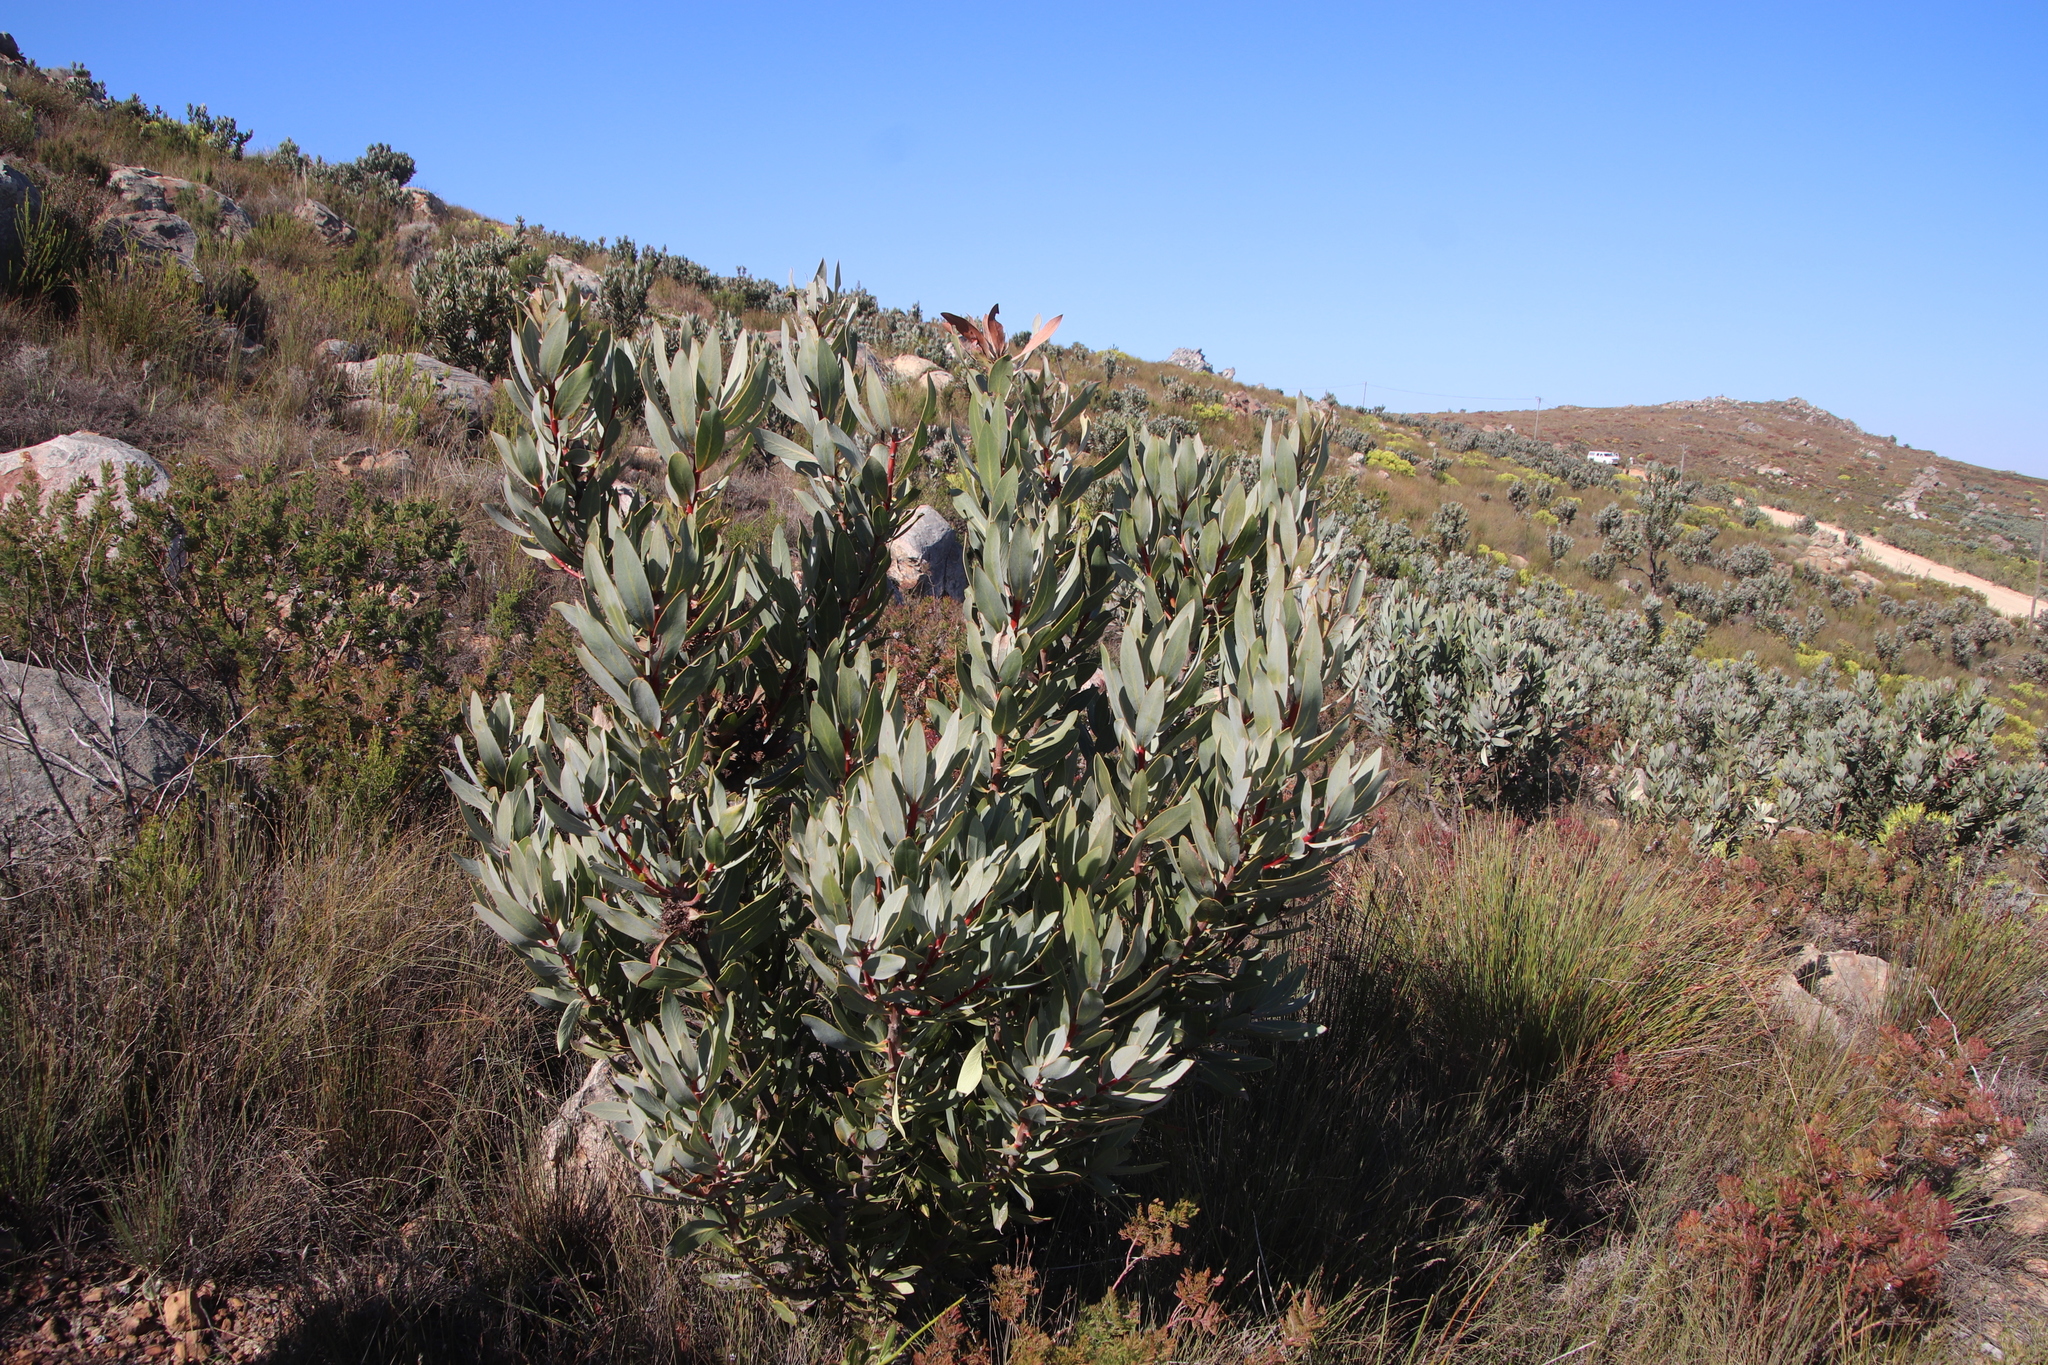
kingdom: Plantae
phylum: Tracheophyta
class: Magnoliopsida
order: Proteales
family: Proteaceae
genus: Protea
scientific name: Protea laurifolia
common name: Grey-leaf sugarbsh
